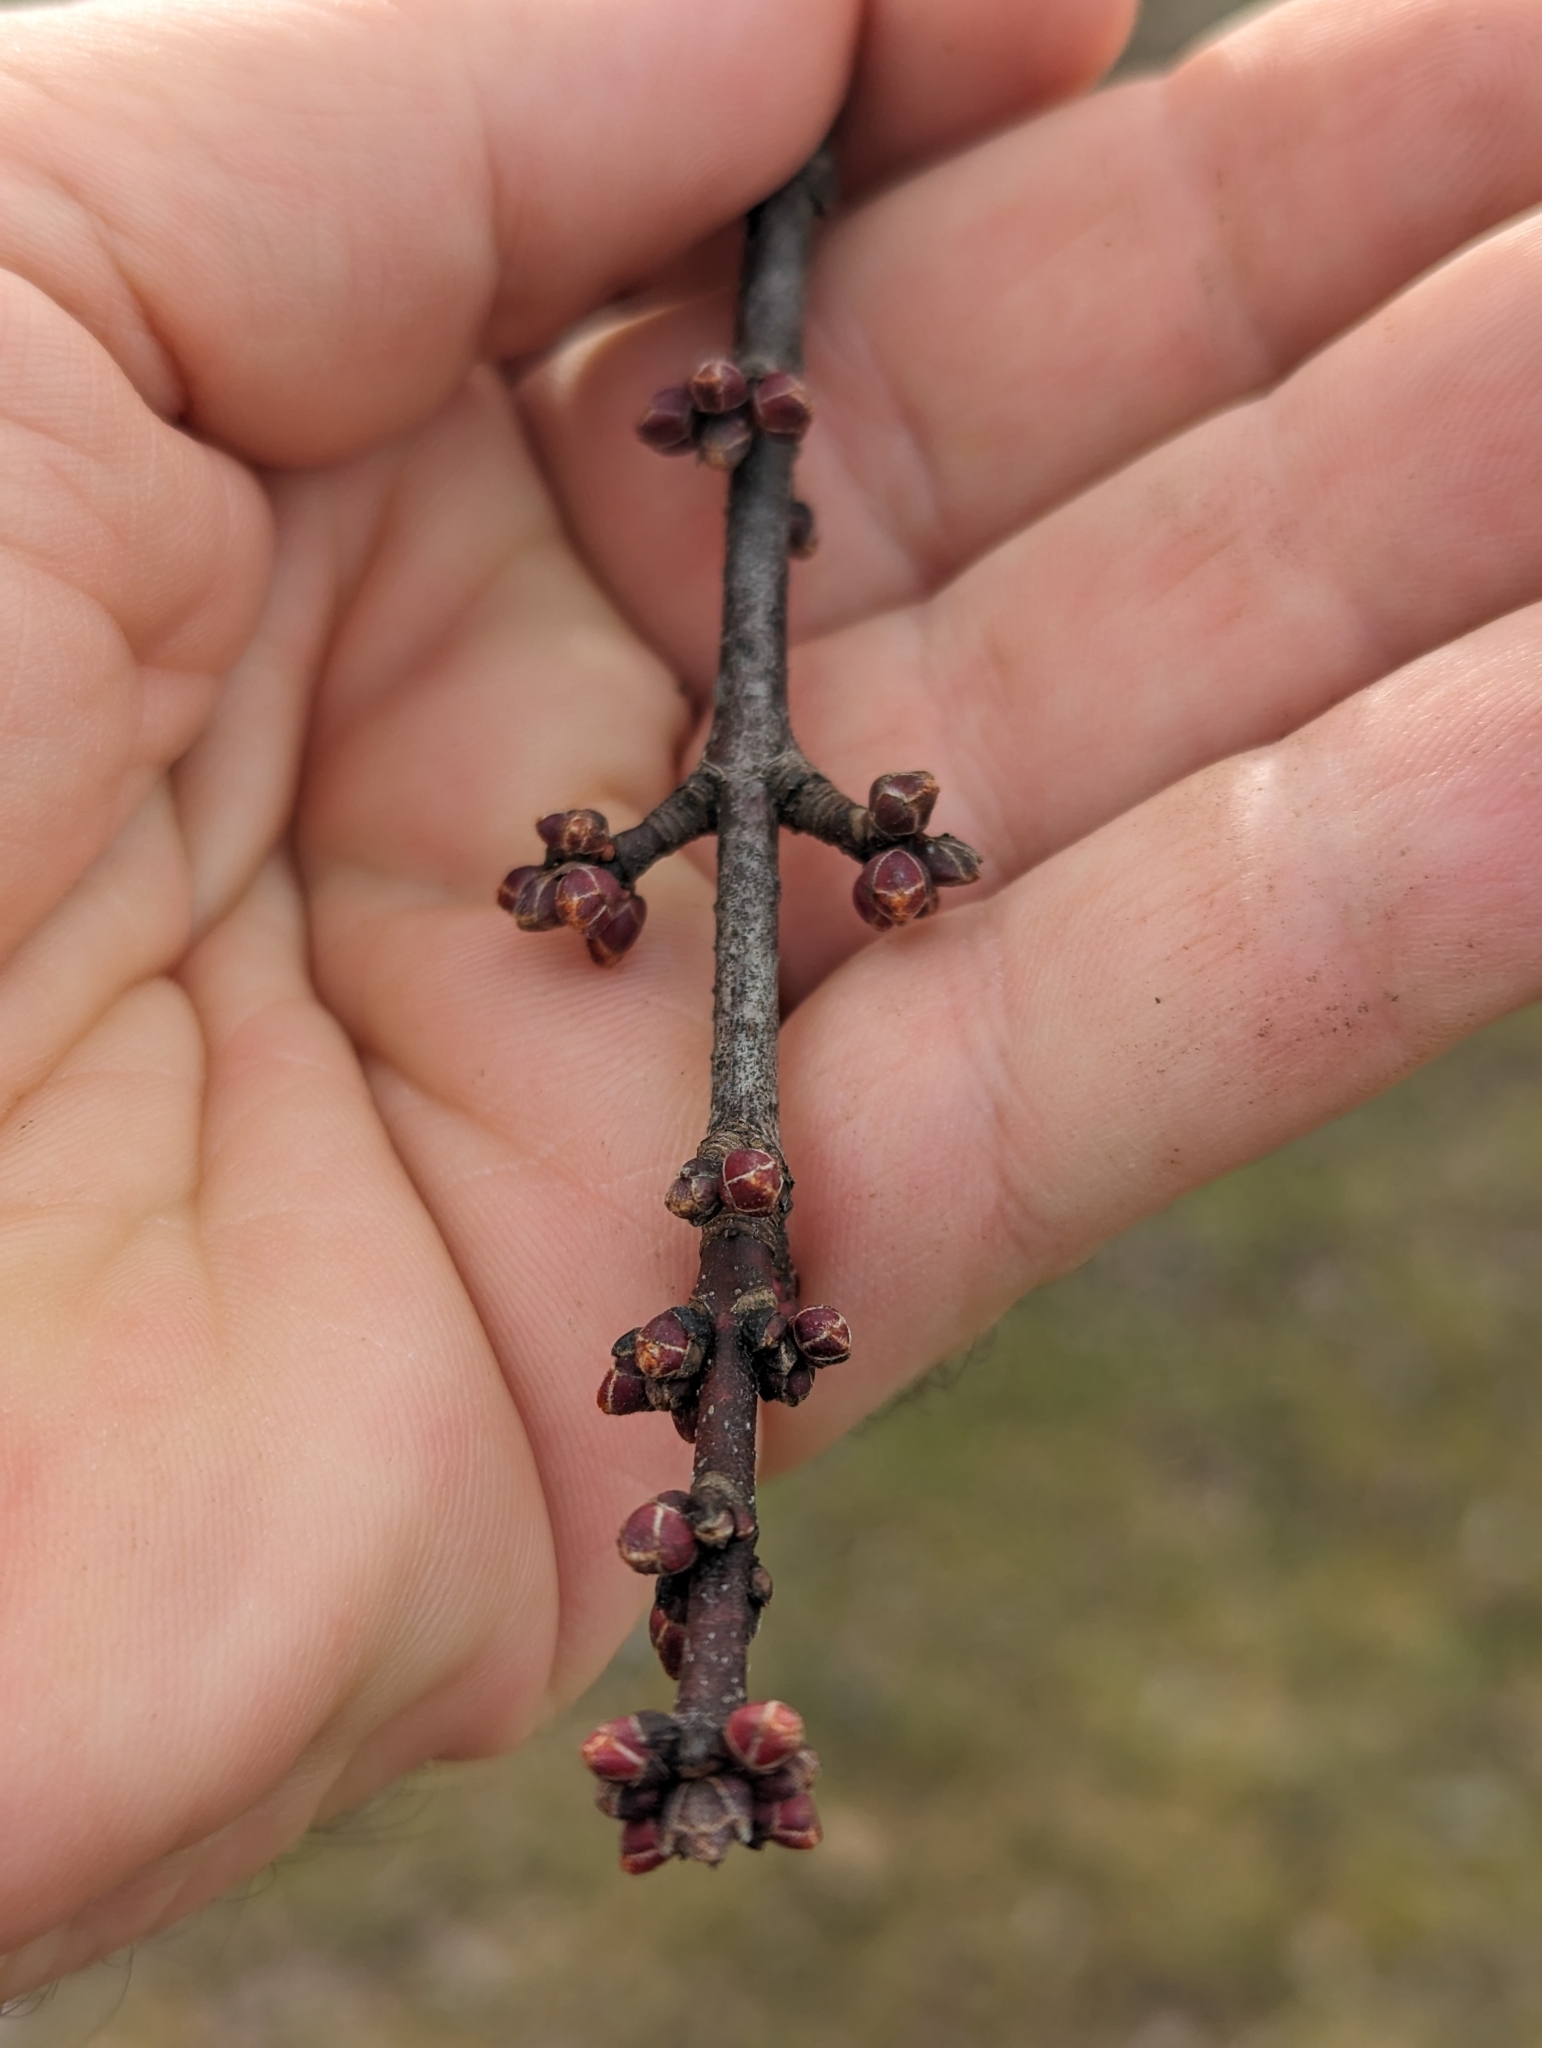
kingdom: Plantae
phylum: Tracheophyta
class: Magnoliopsida
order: Sapindales
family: Sapindaceae
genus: Acer
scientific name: Acer rubrum
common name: Red maple
